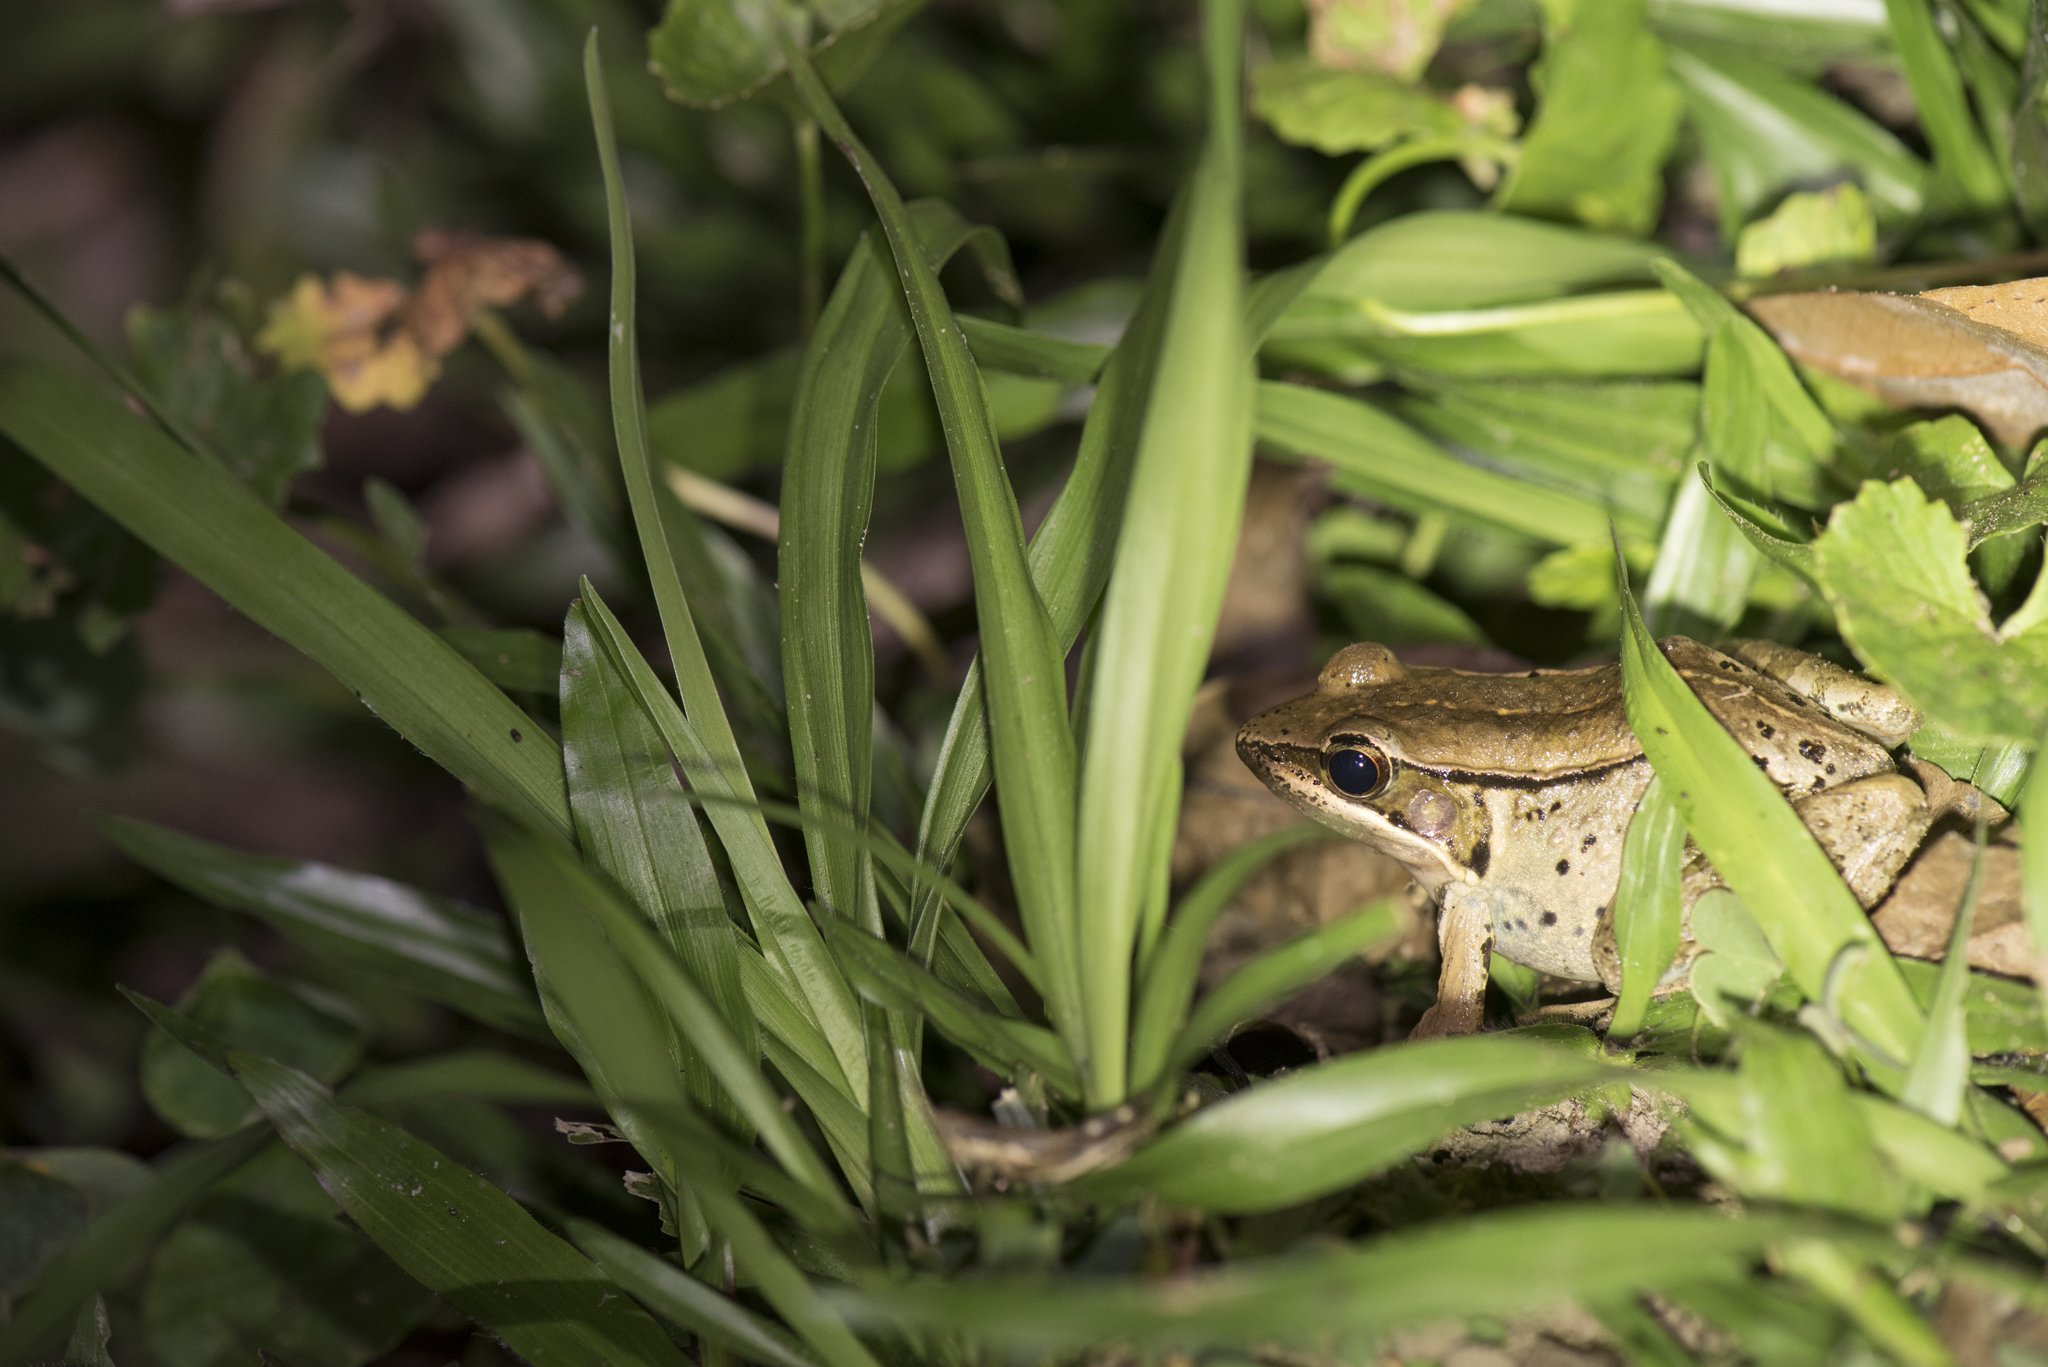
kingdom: Animalia
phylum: Chordata
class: Amphibia
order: Anura
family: Ranidae
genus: Nidirana
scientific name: Nidirana adenopleura
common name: Olive frog
